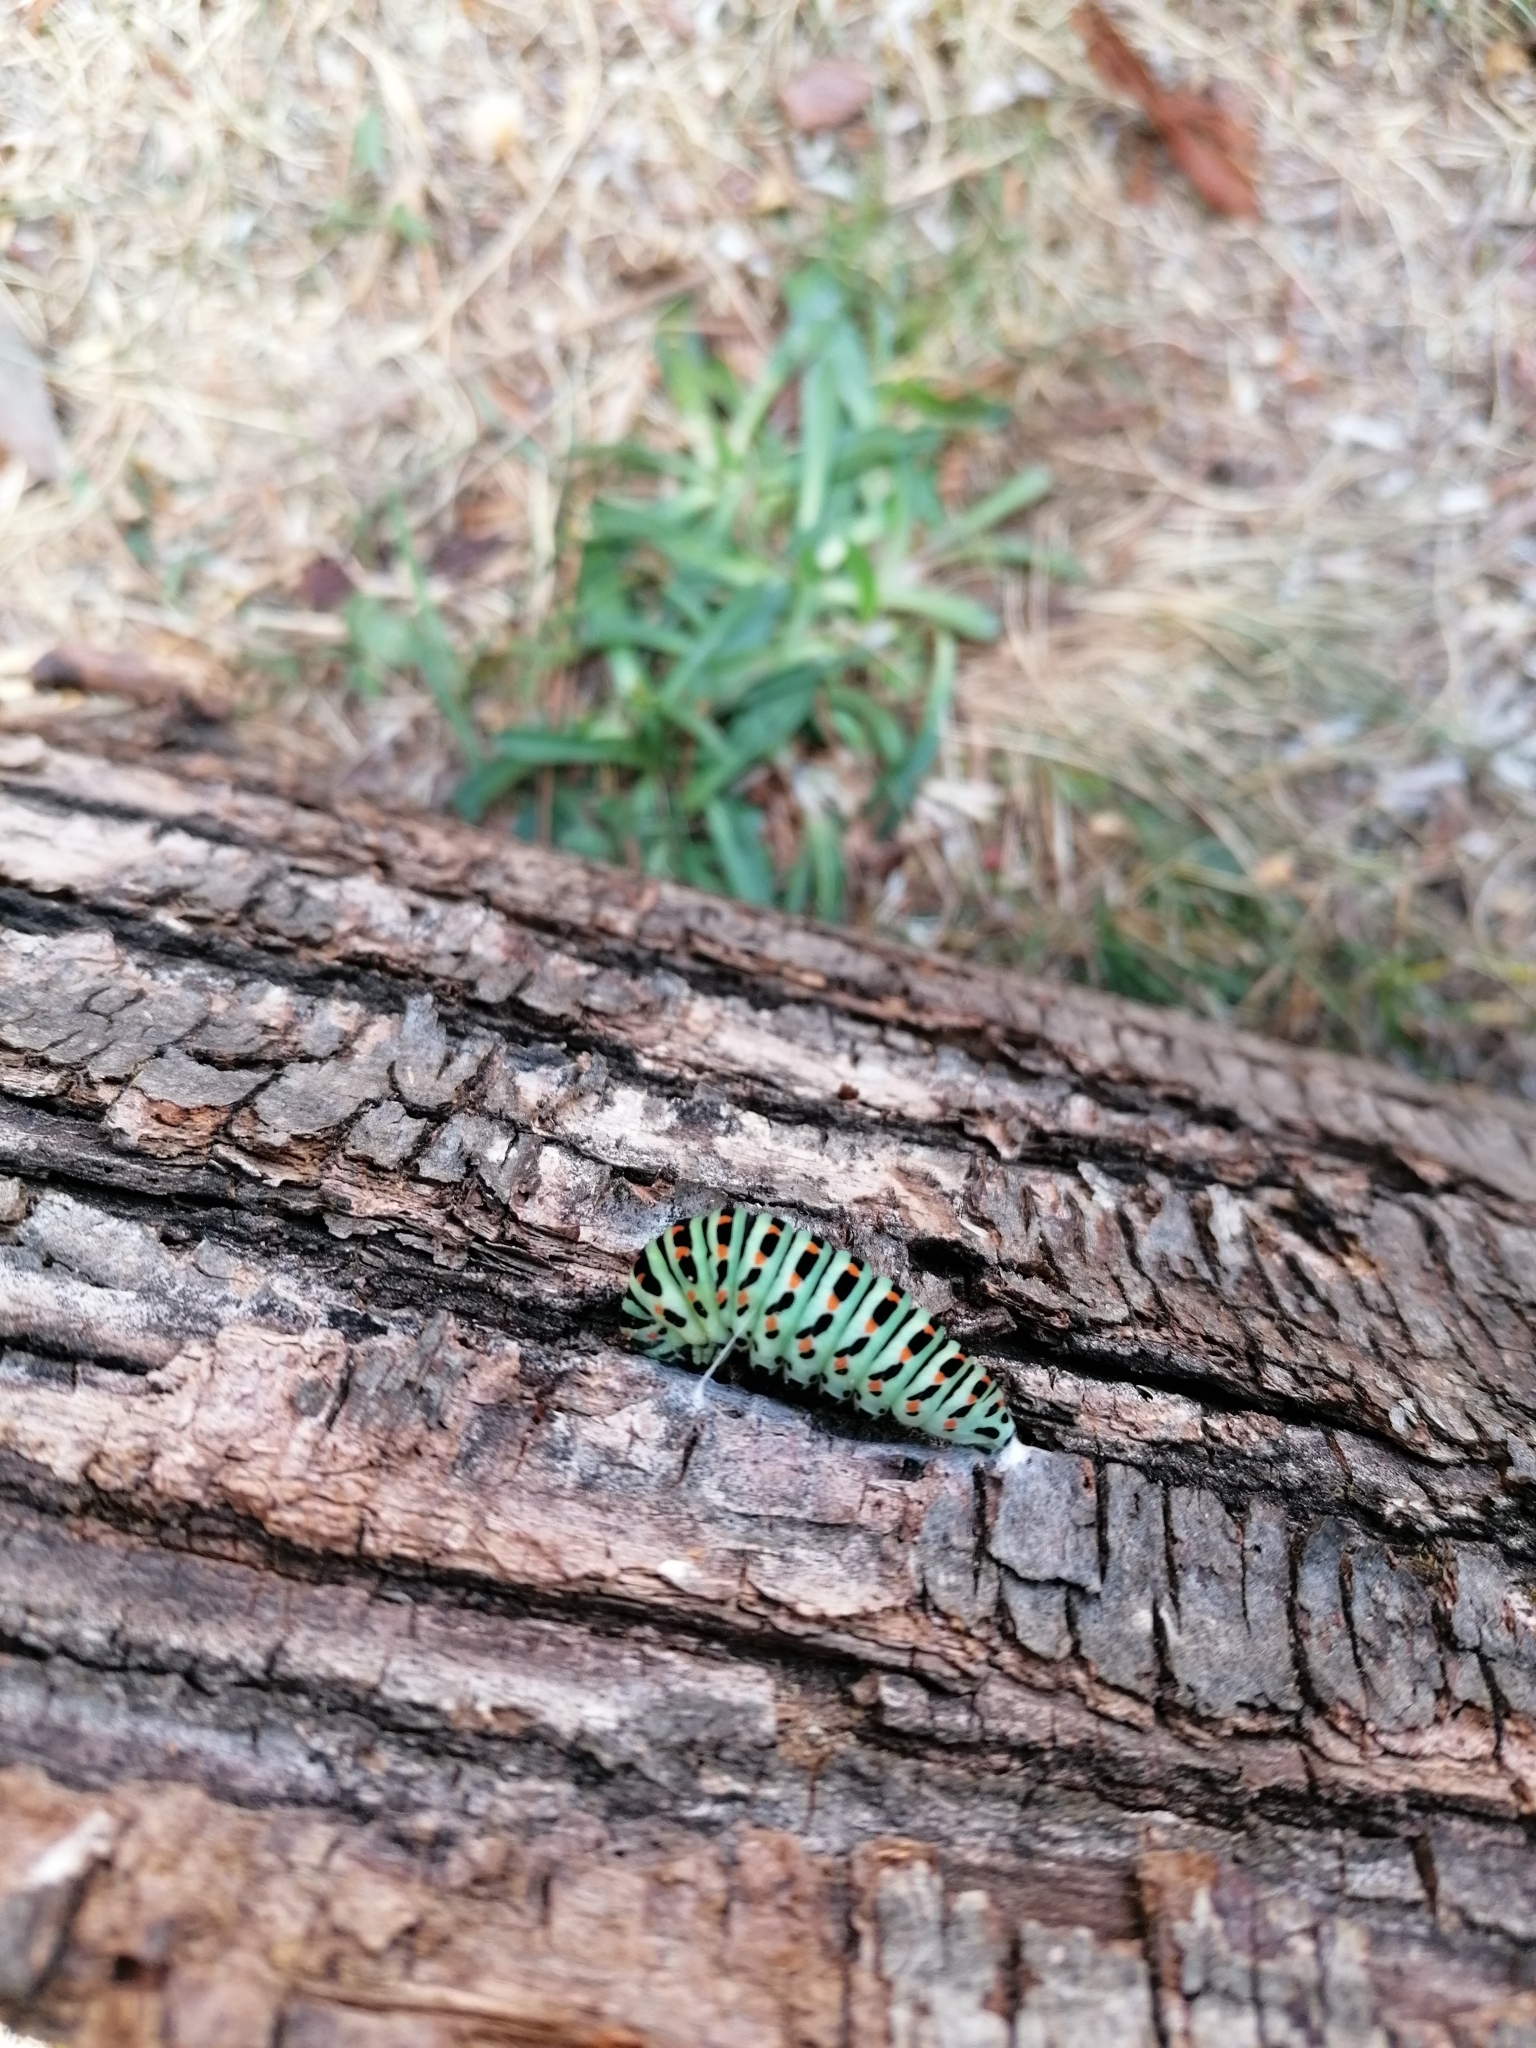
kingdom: Animalia
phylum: Arthropoda
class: Insecta
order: Lepidoptera
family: Papilionidae
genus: Papilio
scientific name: Papilio machaon
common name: Swallowtail
